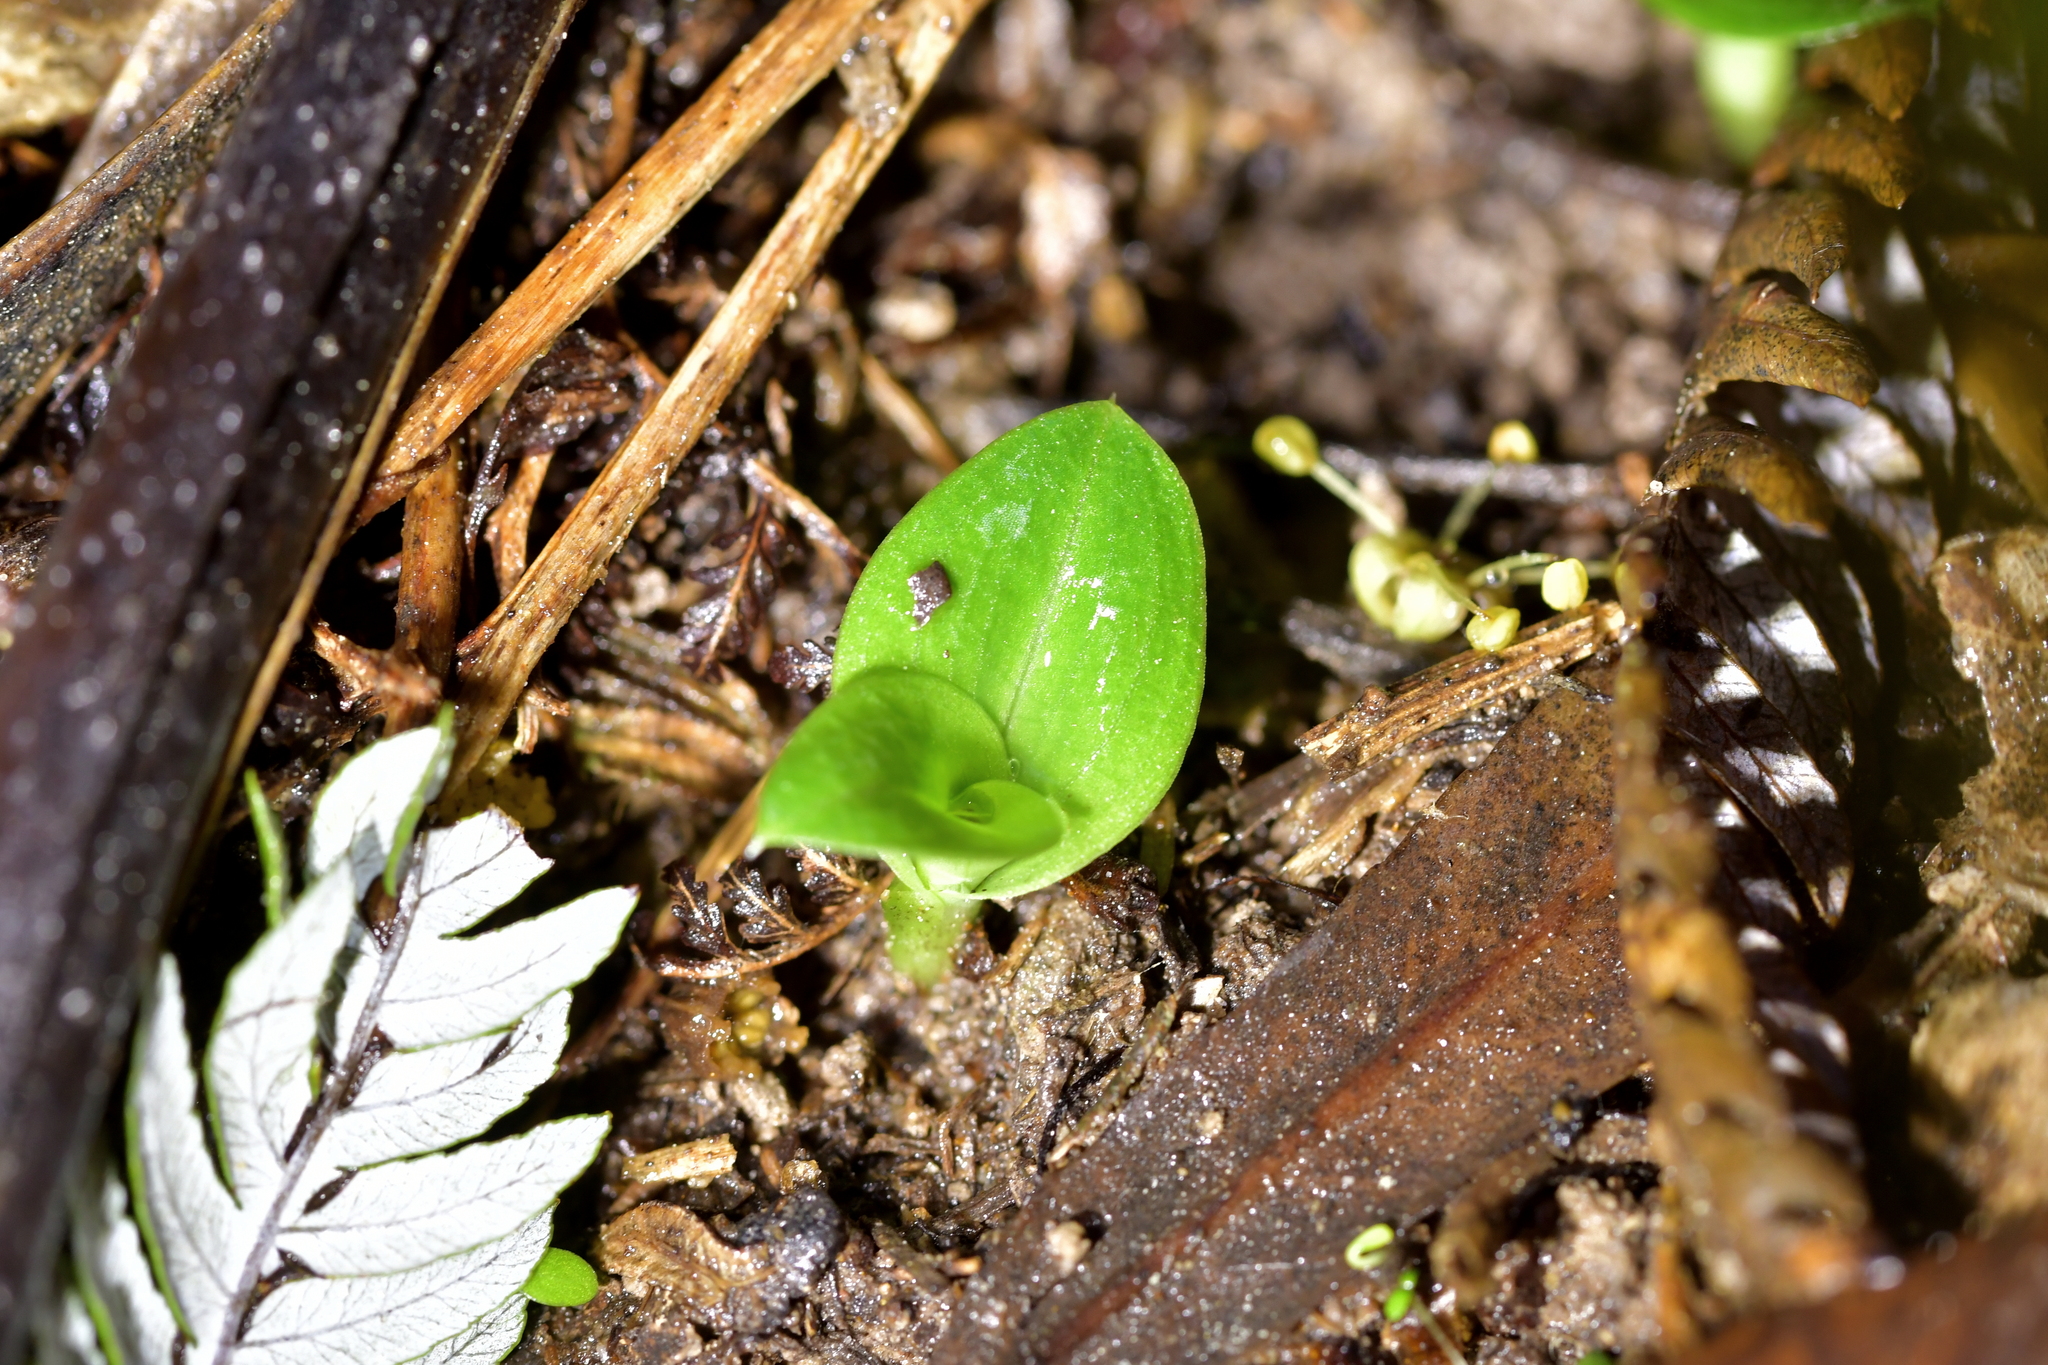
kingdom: Plantae
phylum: Tracheophyta
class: Liliopsida
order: Asparagales
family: Orchidaceae
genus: Chiloglottis
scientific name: Chiloglottis cornuta
